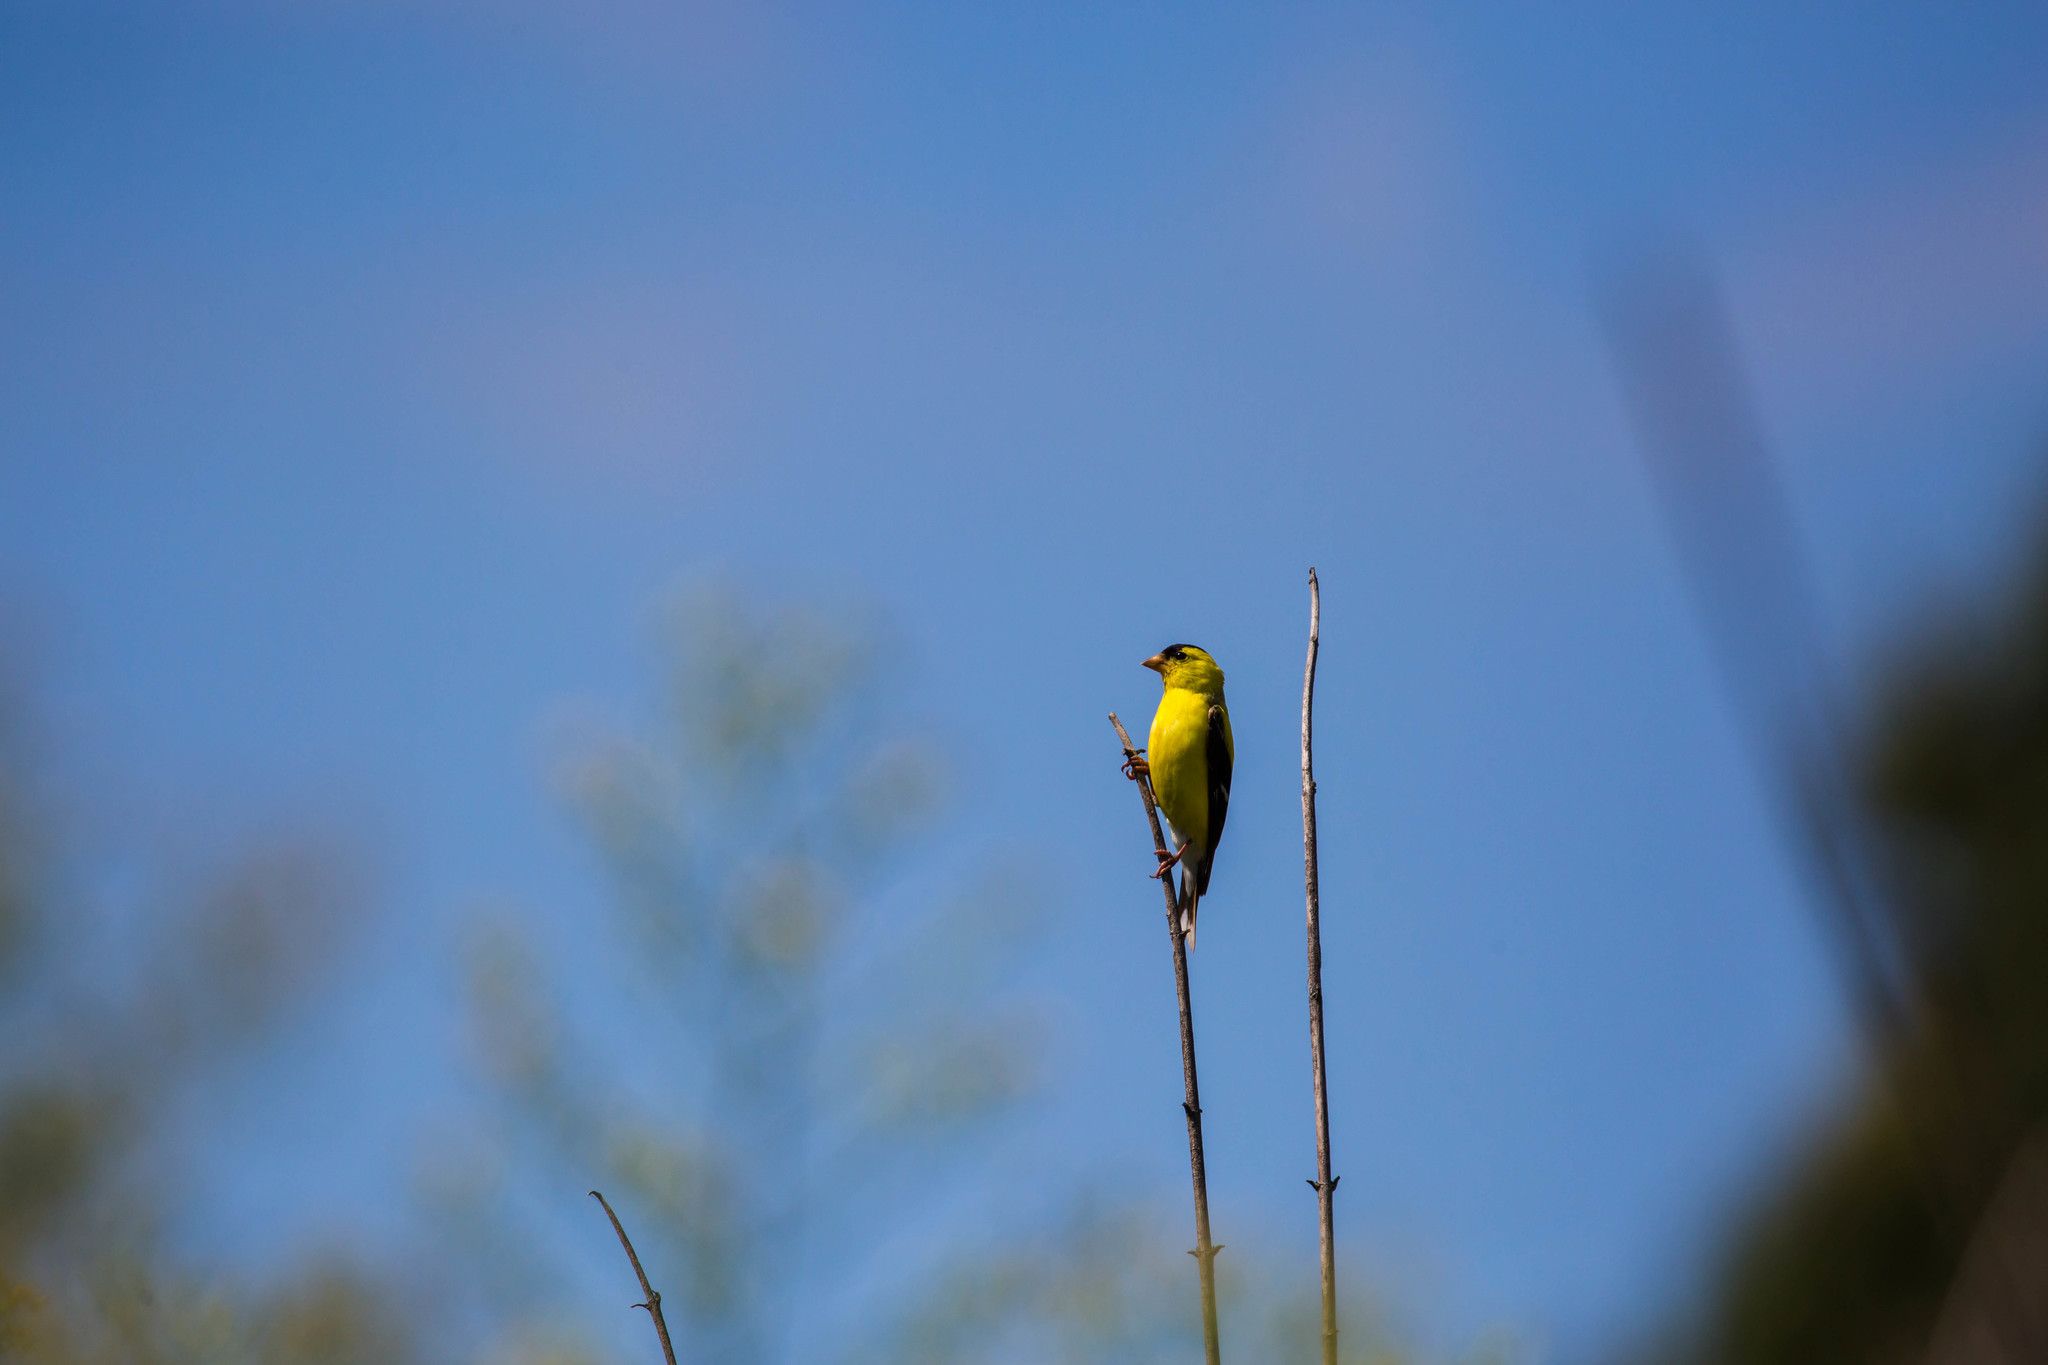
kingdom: Animalia
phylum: Chordata
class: Aves
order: Passeriformes
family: Fringillidae
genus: Spinus
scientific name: Spinus tristis
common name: American goldfinch
